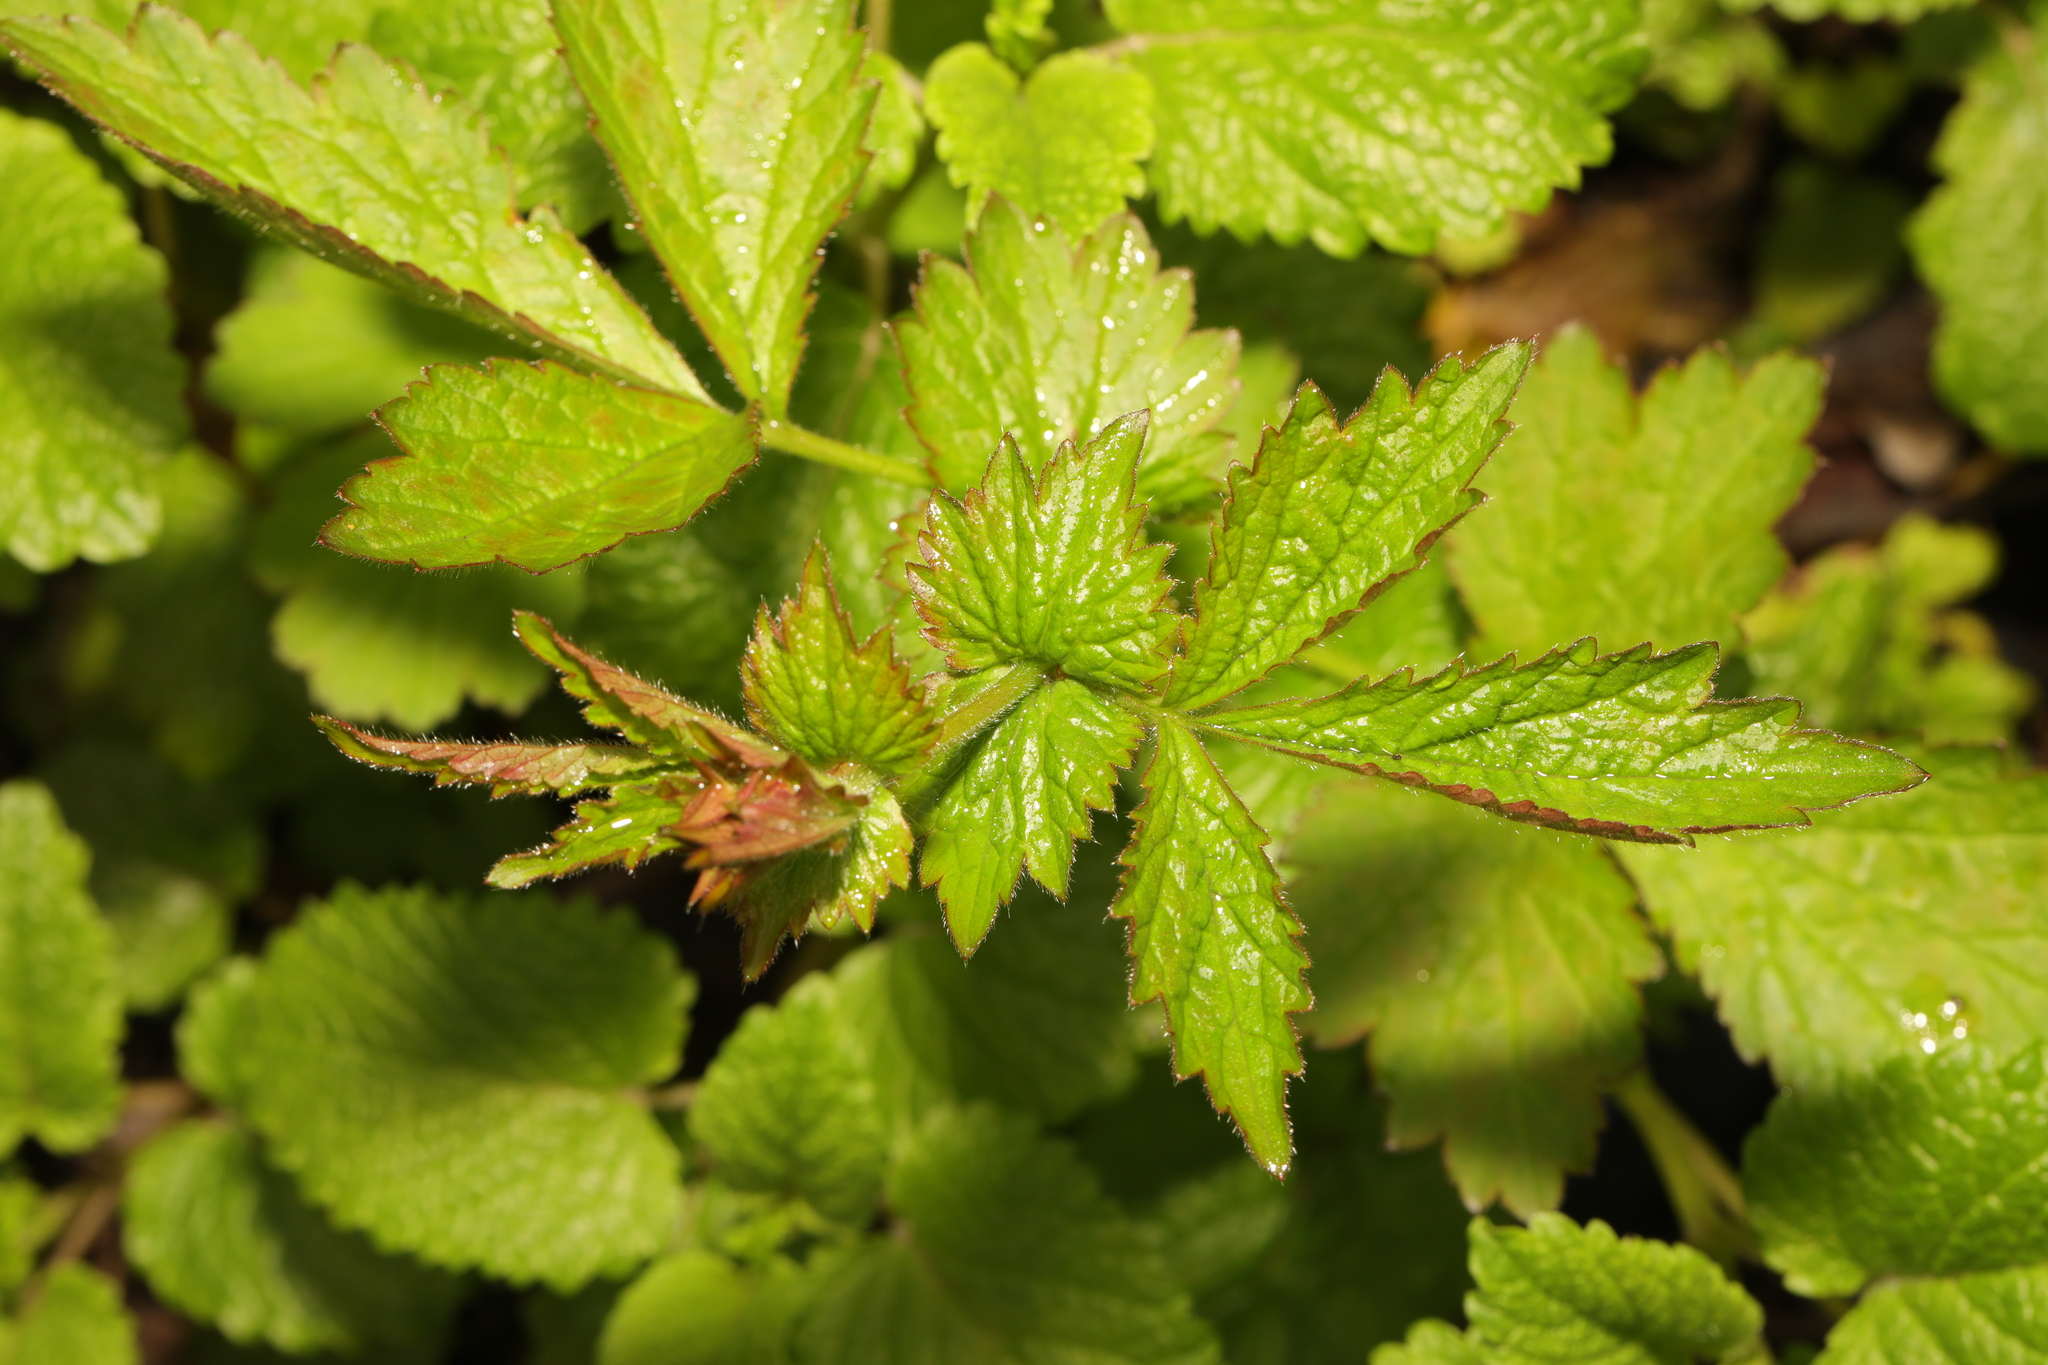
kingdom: Plantae
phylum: Tracheophyta
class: Magnoliopsida
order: Rosales
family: Rosaceae
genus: Geum
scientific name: Geum urbanum
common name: Wood avens
